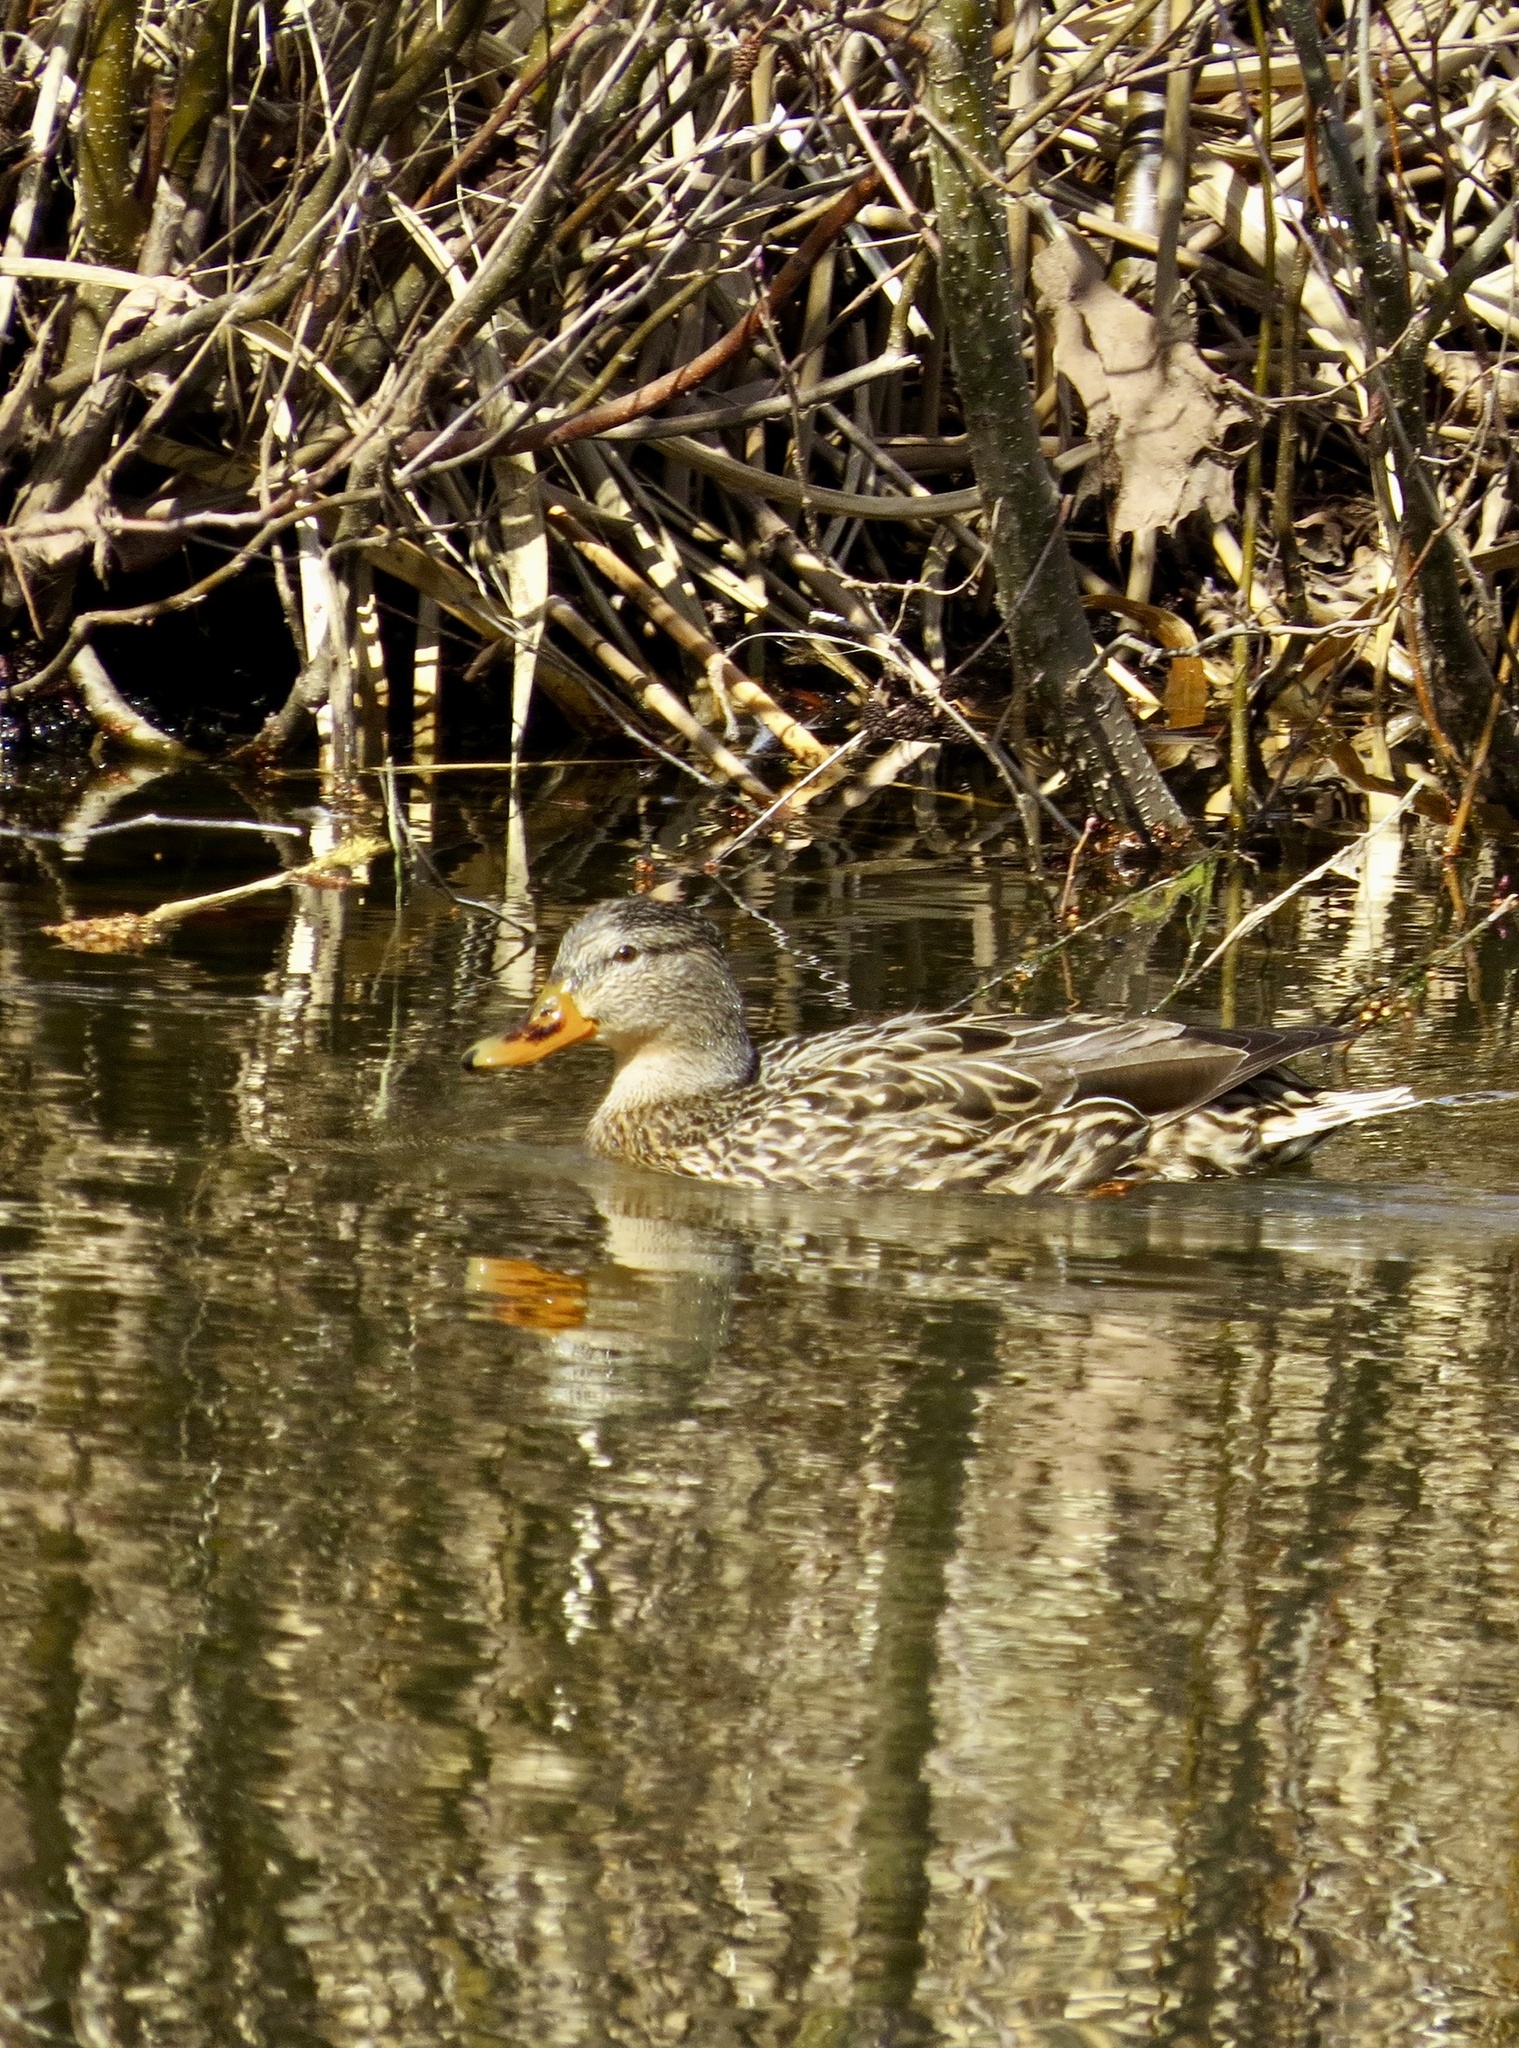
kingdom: Animalia
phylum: Chordata
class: Aves
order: Anseriformes
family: Anatidae
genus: Anas
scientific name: Anas platyrhynchos
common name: Mallard
